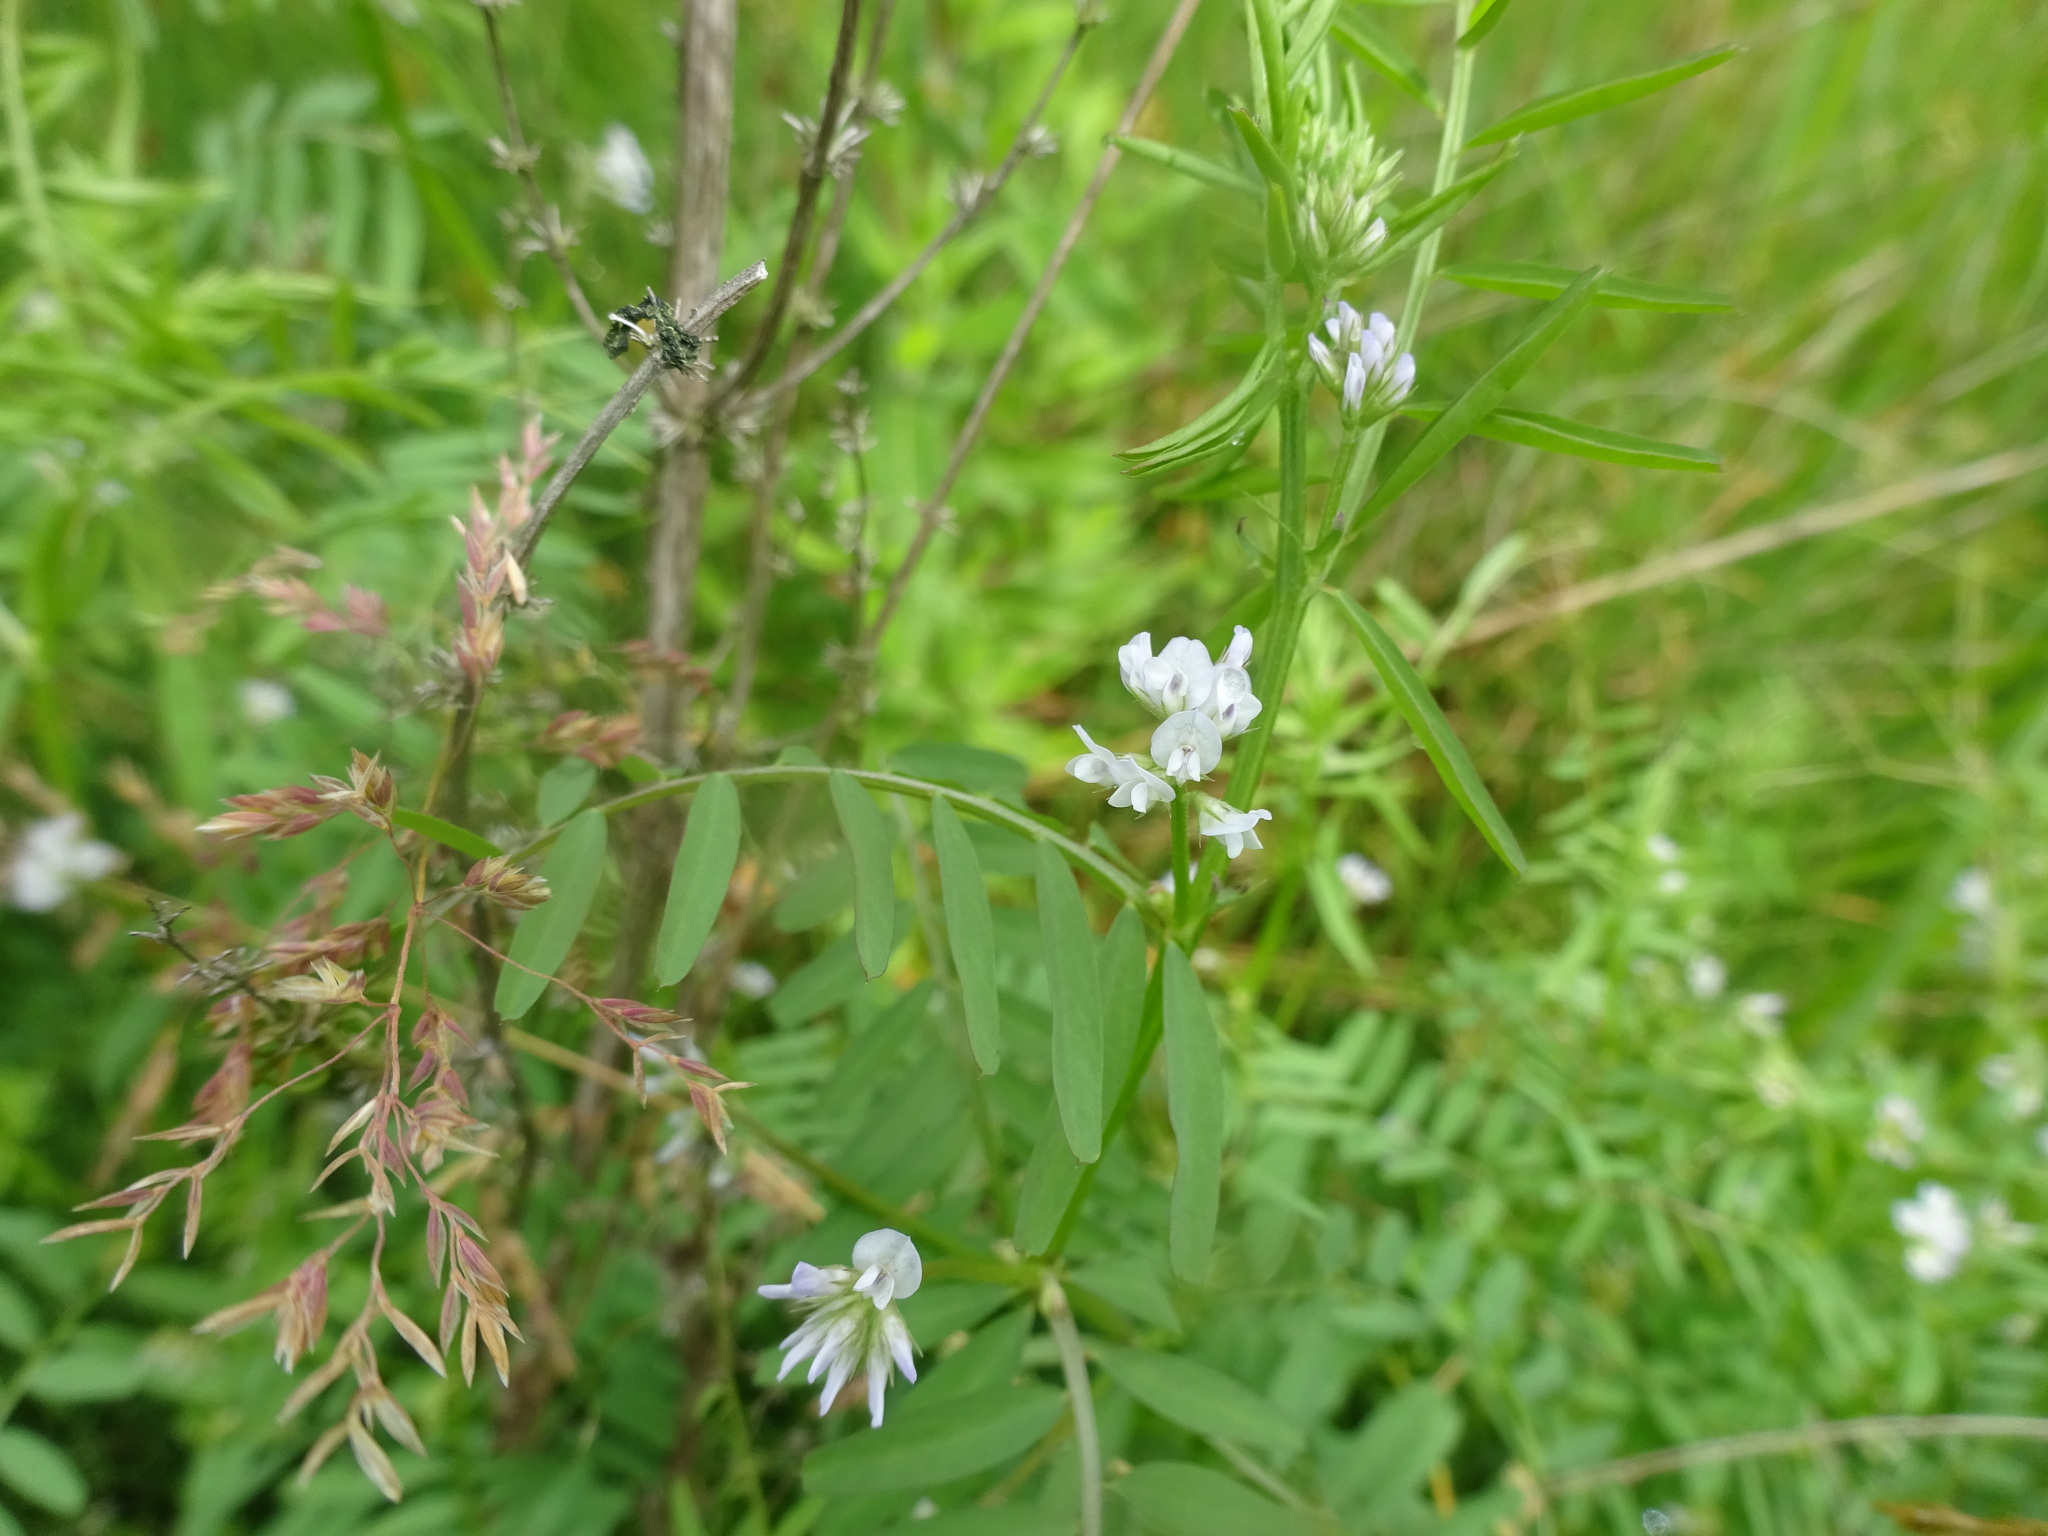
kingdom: Plantae
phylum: Tracheophyta
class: Magnoliopsida
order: Fabales
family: Fabaceae
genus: Vicia
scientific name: Vicia hirsuta
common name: Tiny vetch
